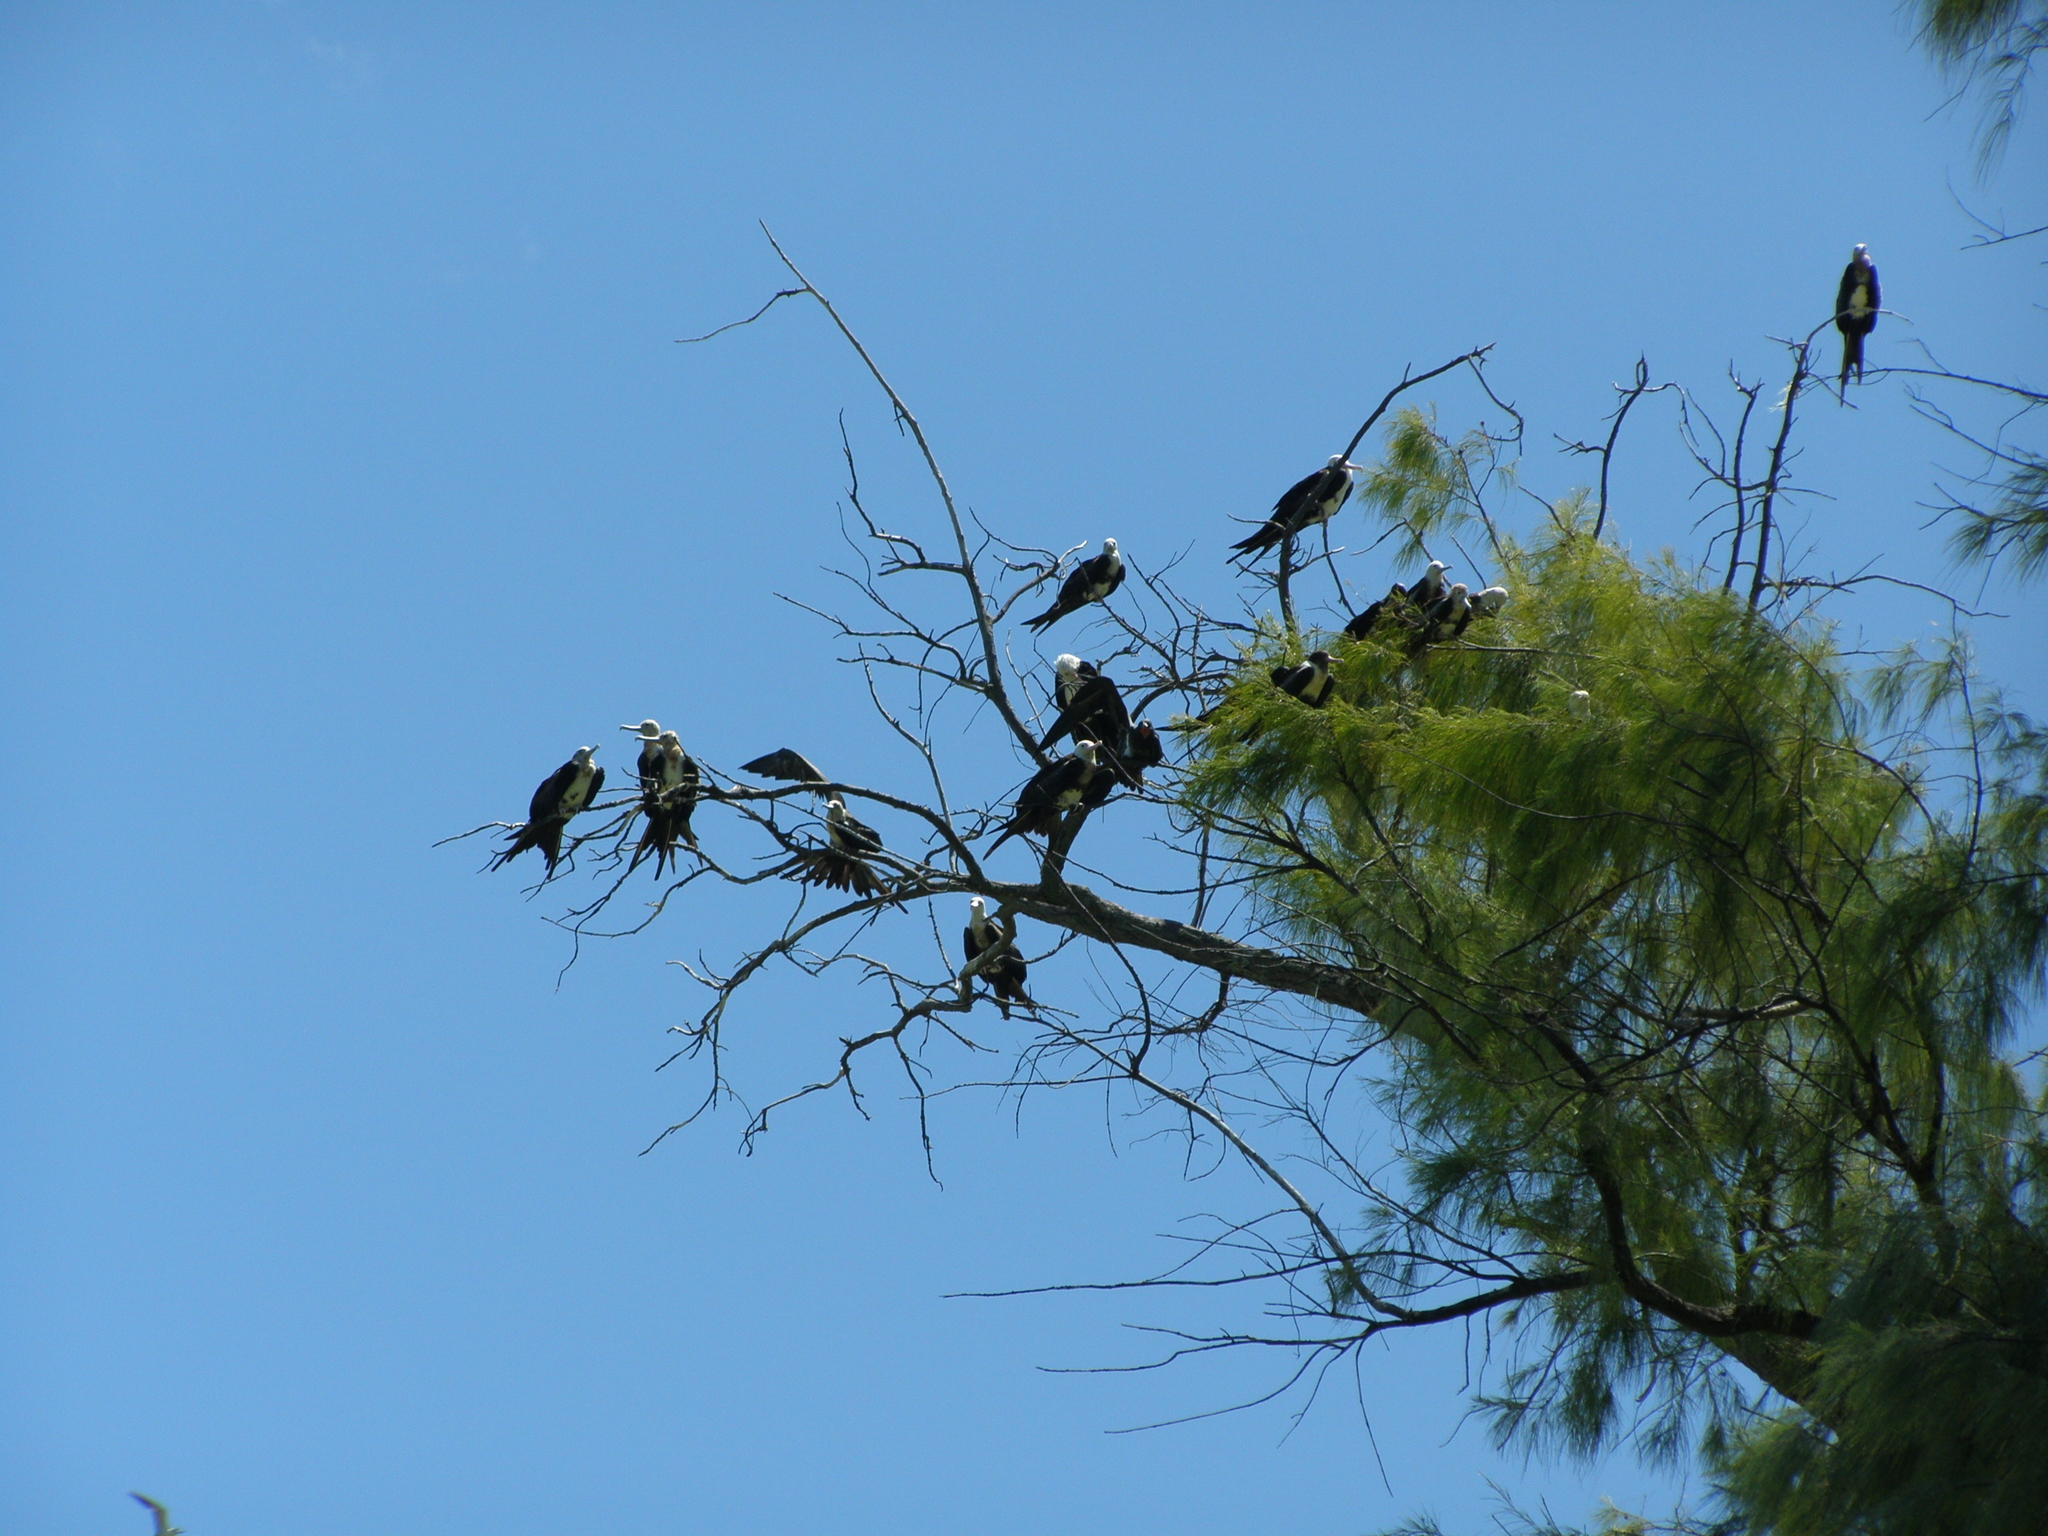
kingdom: Animalia
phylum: Chordata
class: Aves
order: Suliformes
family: Fregatidae
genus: Fregata
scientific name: Fregata minor
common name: Great frigatebird
